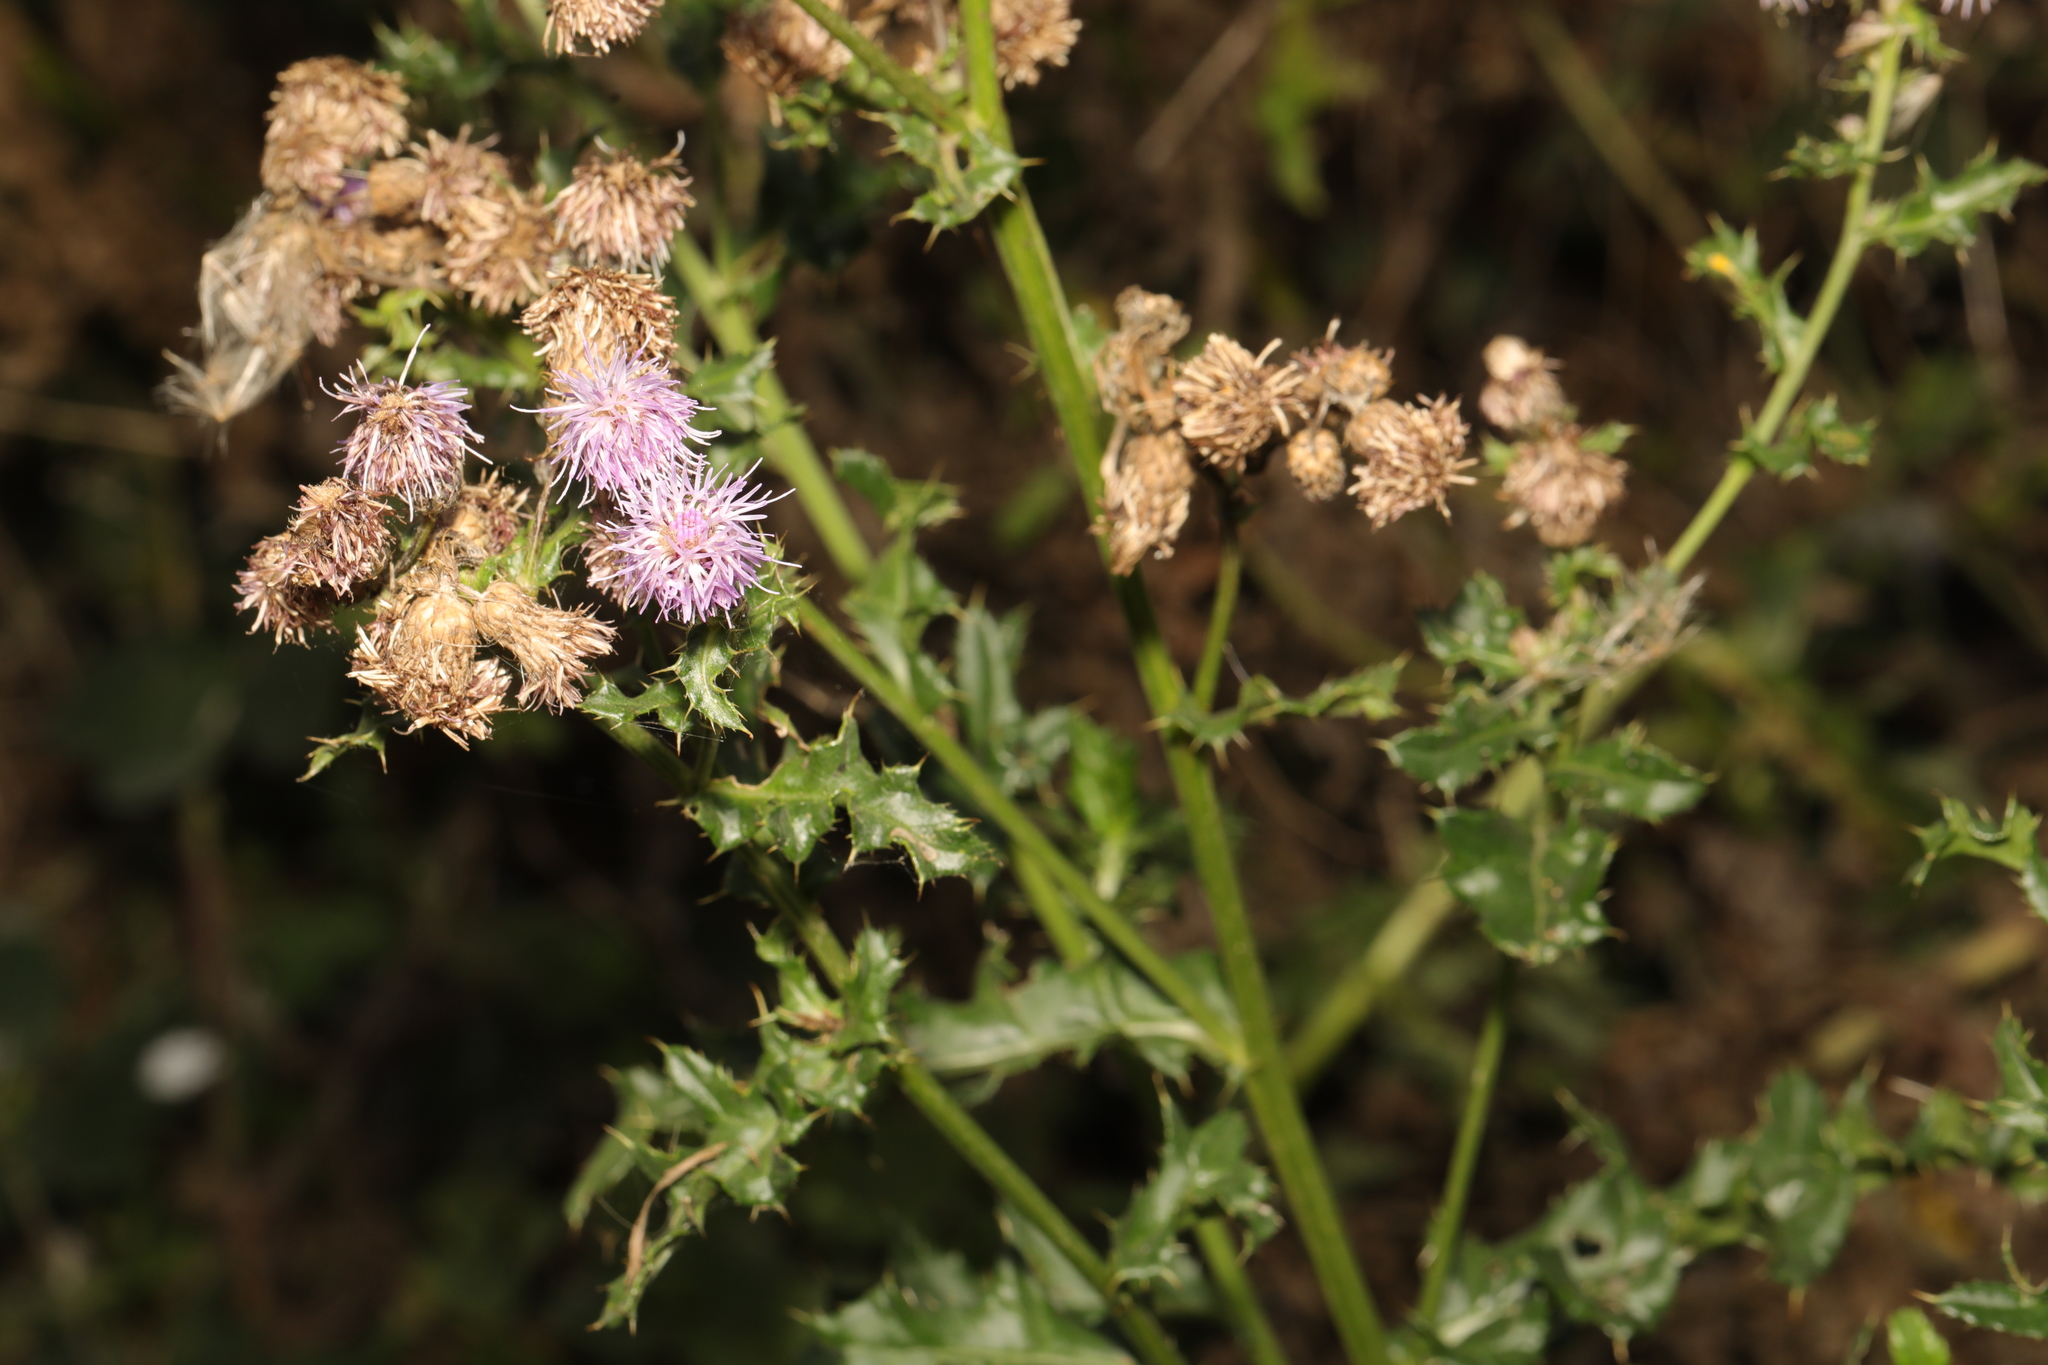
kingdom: Plantae
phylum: Tracheophyta
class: Magnoliopsida
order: Asterales
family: Asteraceae
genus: Cirsium
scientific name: Cirsium arvense
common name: Creeping thistle
